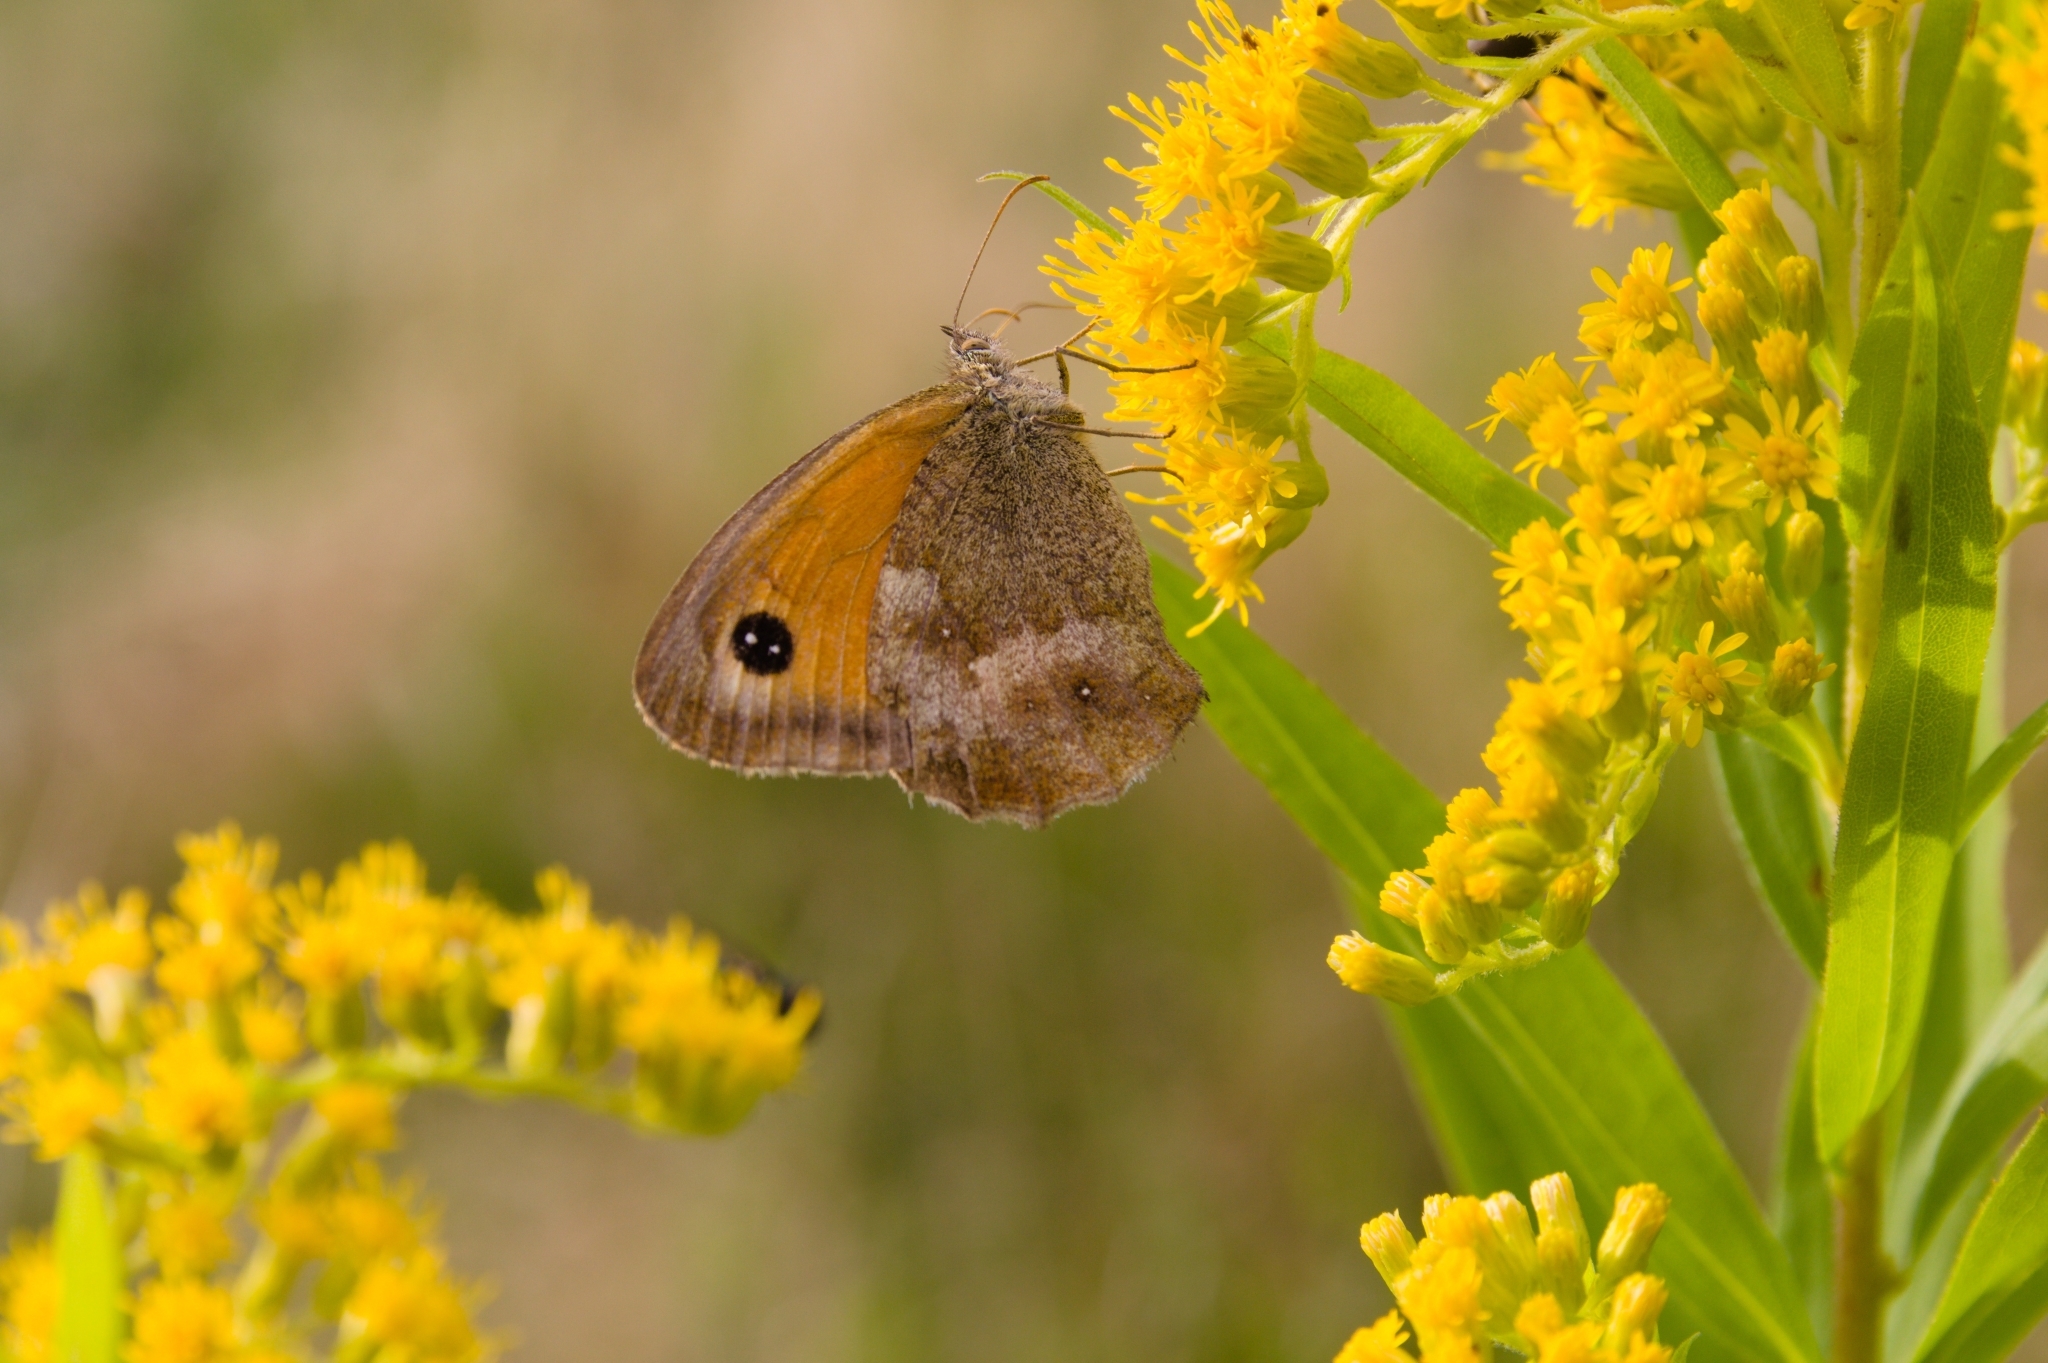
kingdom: Animalia
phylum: Arthropoda
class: Insecta
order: Lepidoptera
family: Nymphalidae
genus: Pyronia
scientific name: Pyronia tithonus
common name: Gatekeeper
